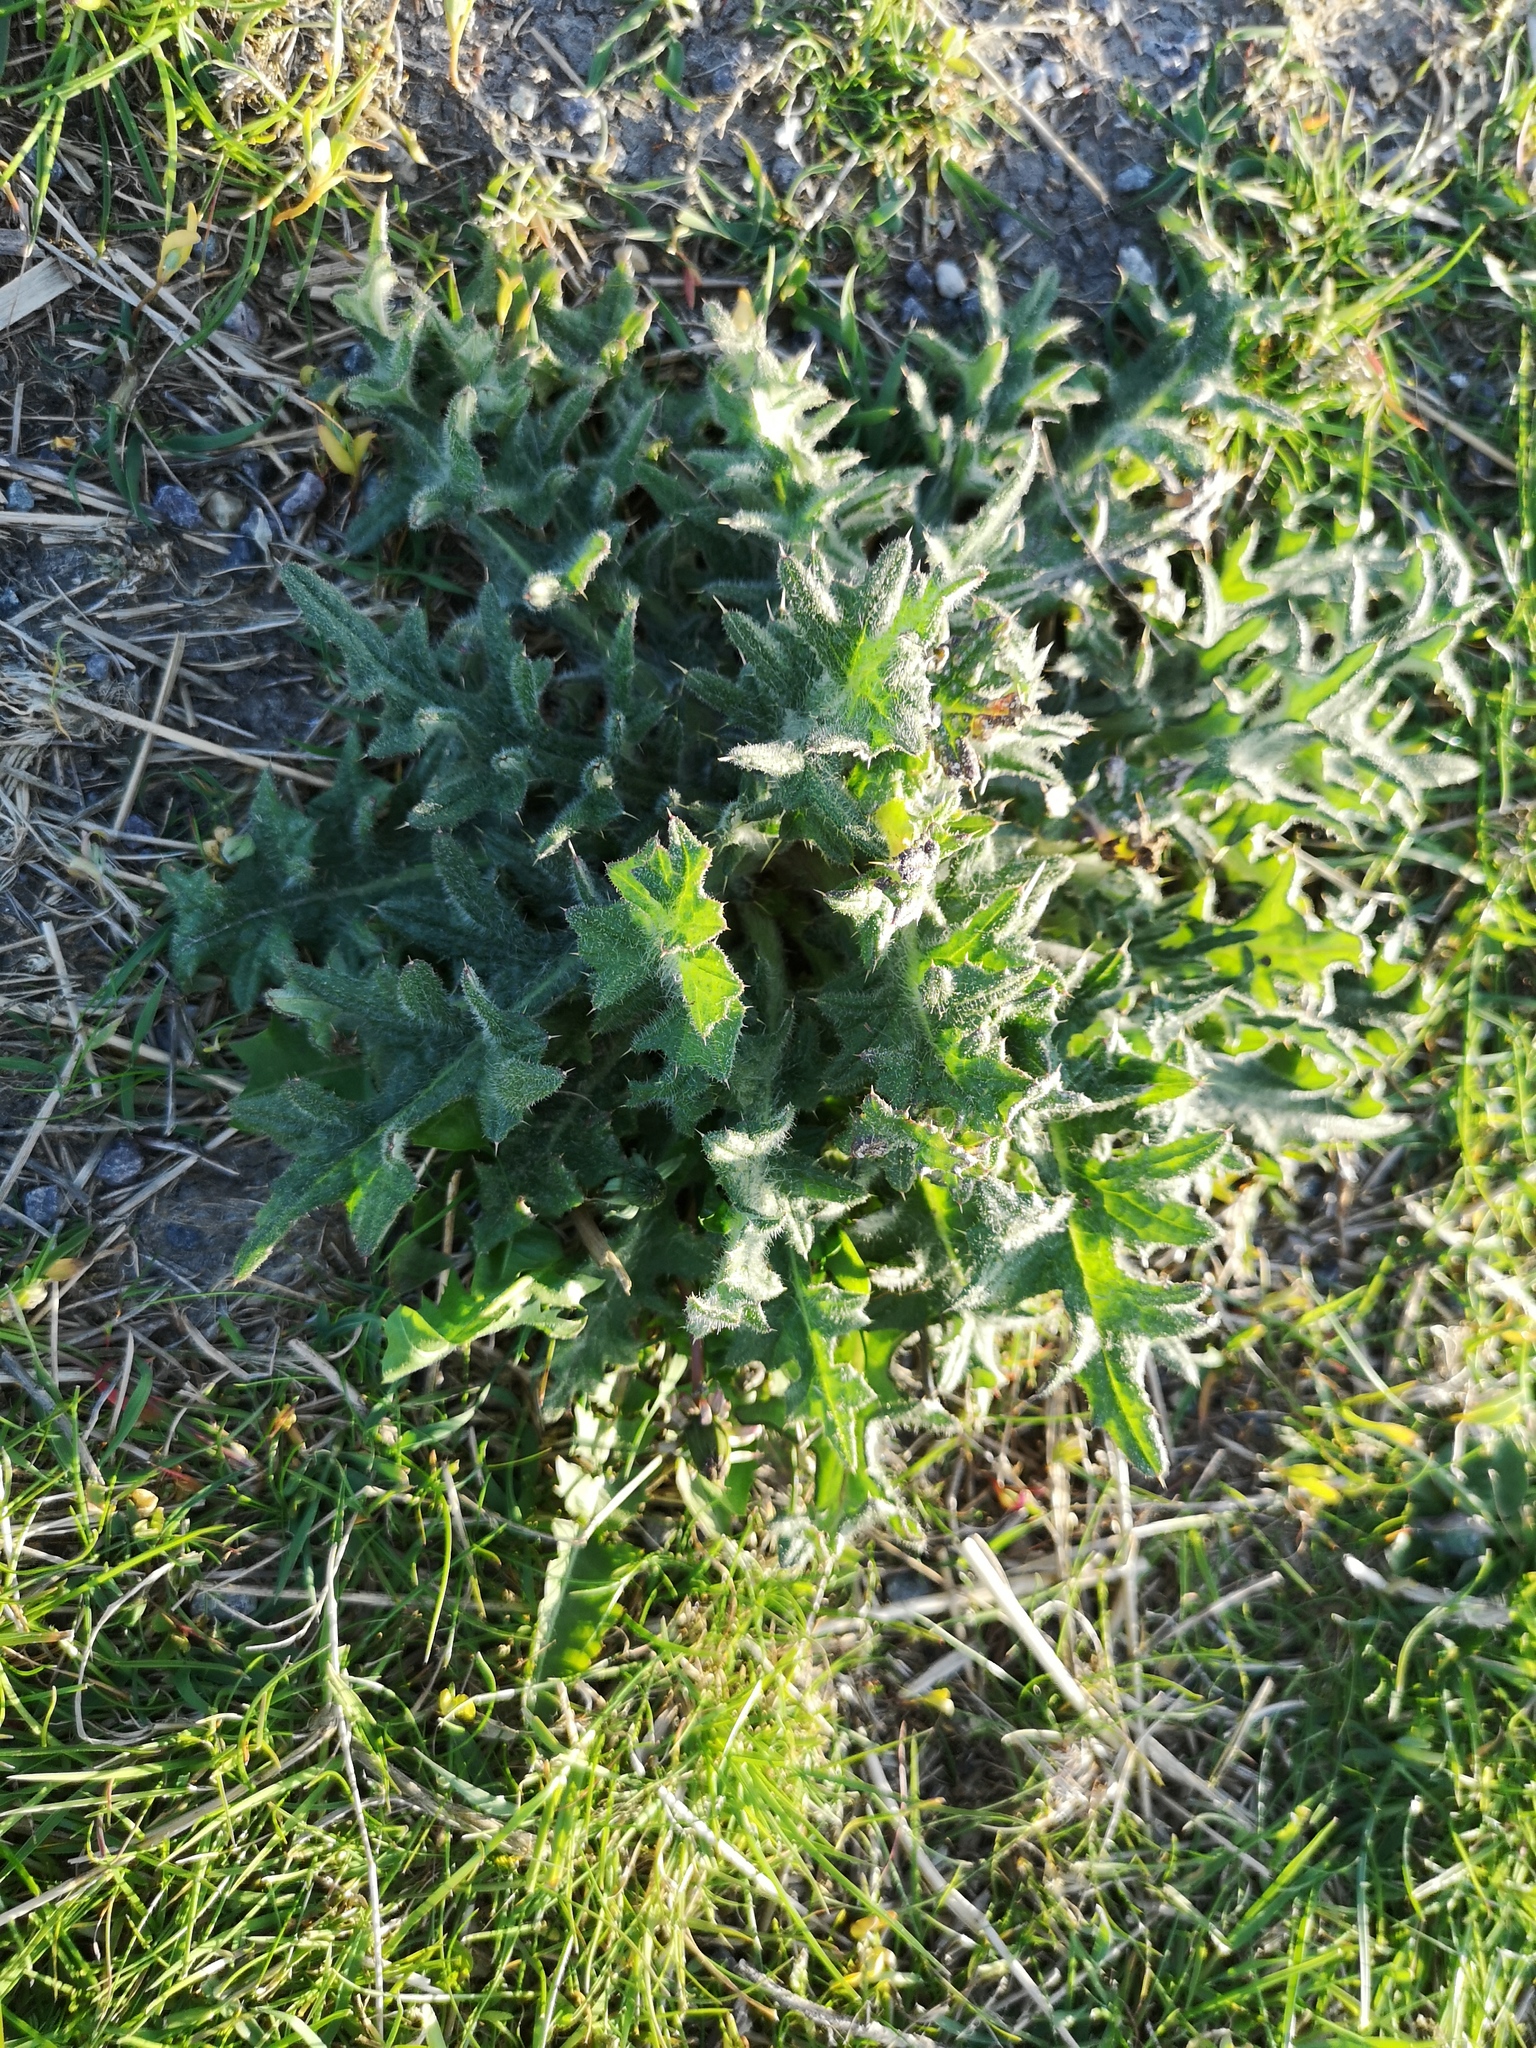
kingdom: Plantae
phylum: Tracheophyta
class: Magnoliopsida
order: Asterales
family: Asteraceae
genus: Cirsium
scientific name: Cirsium vulgare
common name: Bull thistle
